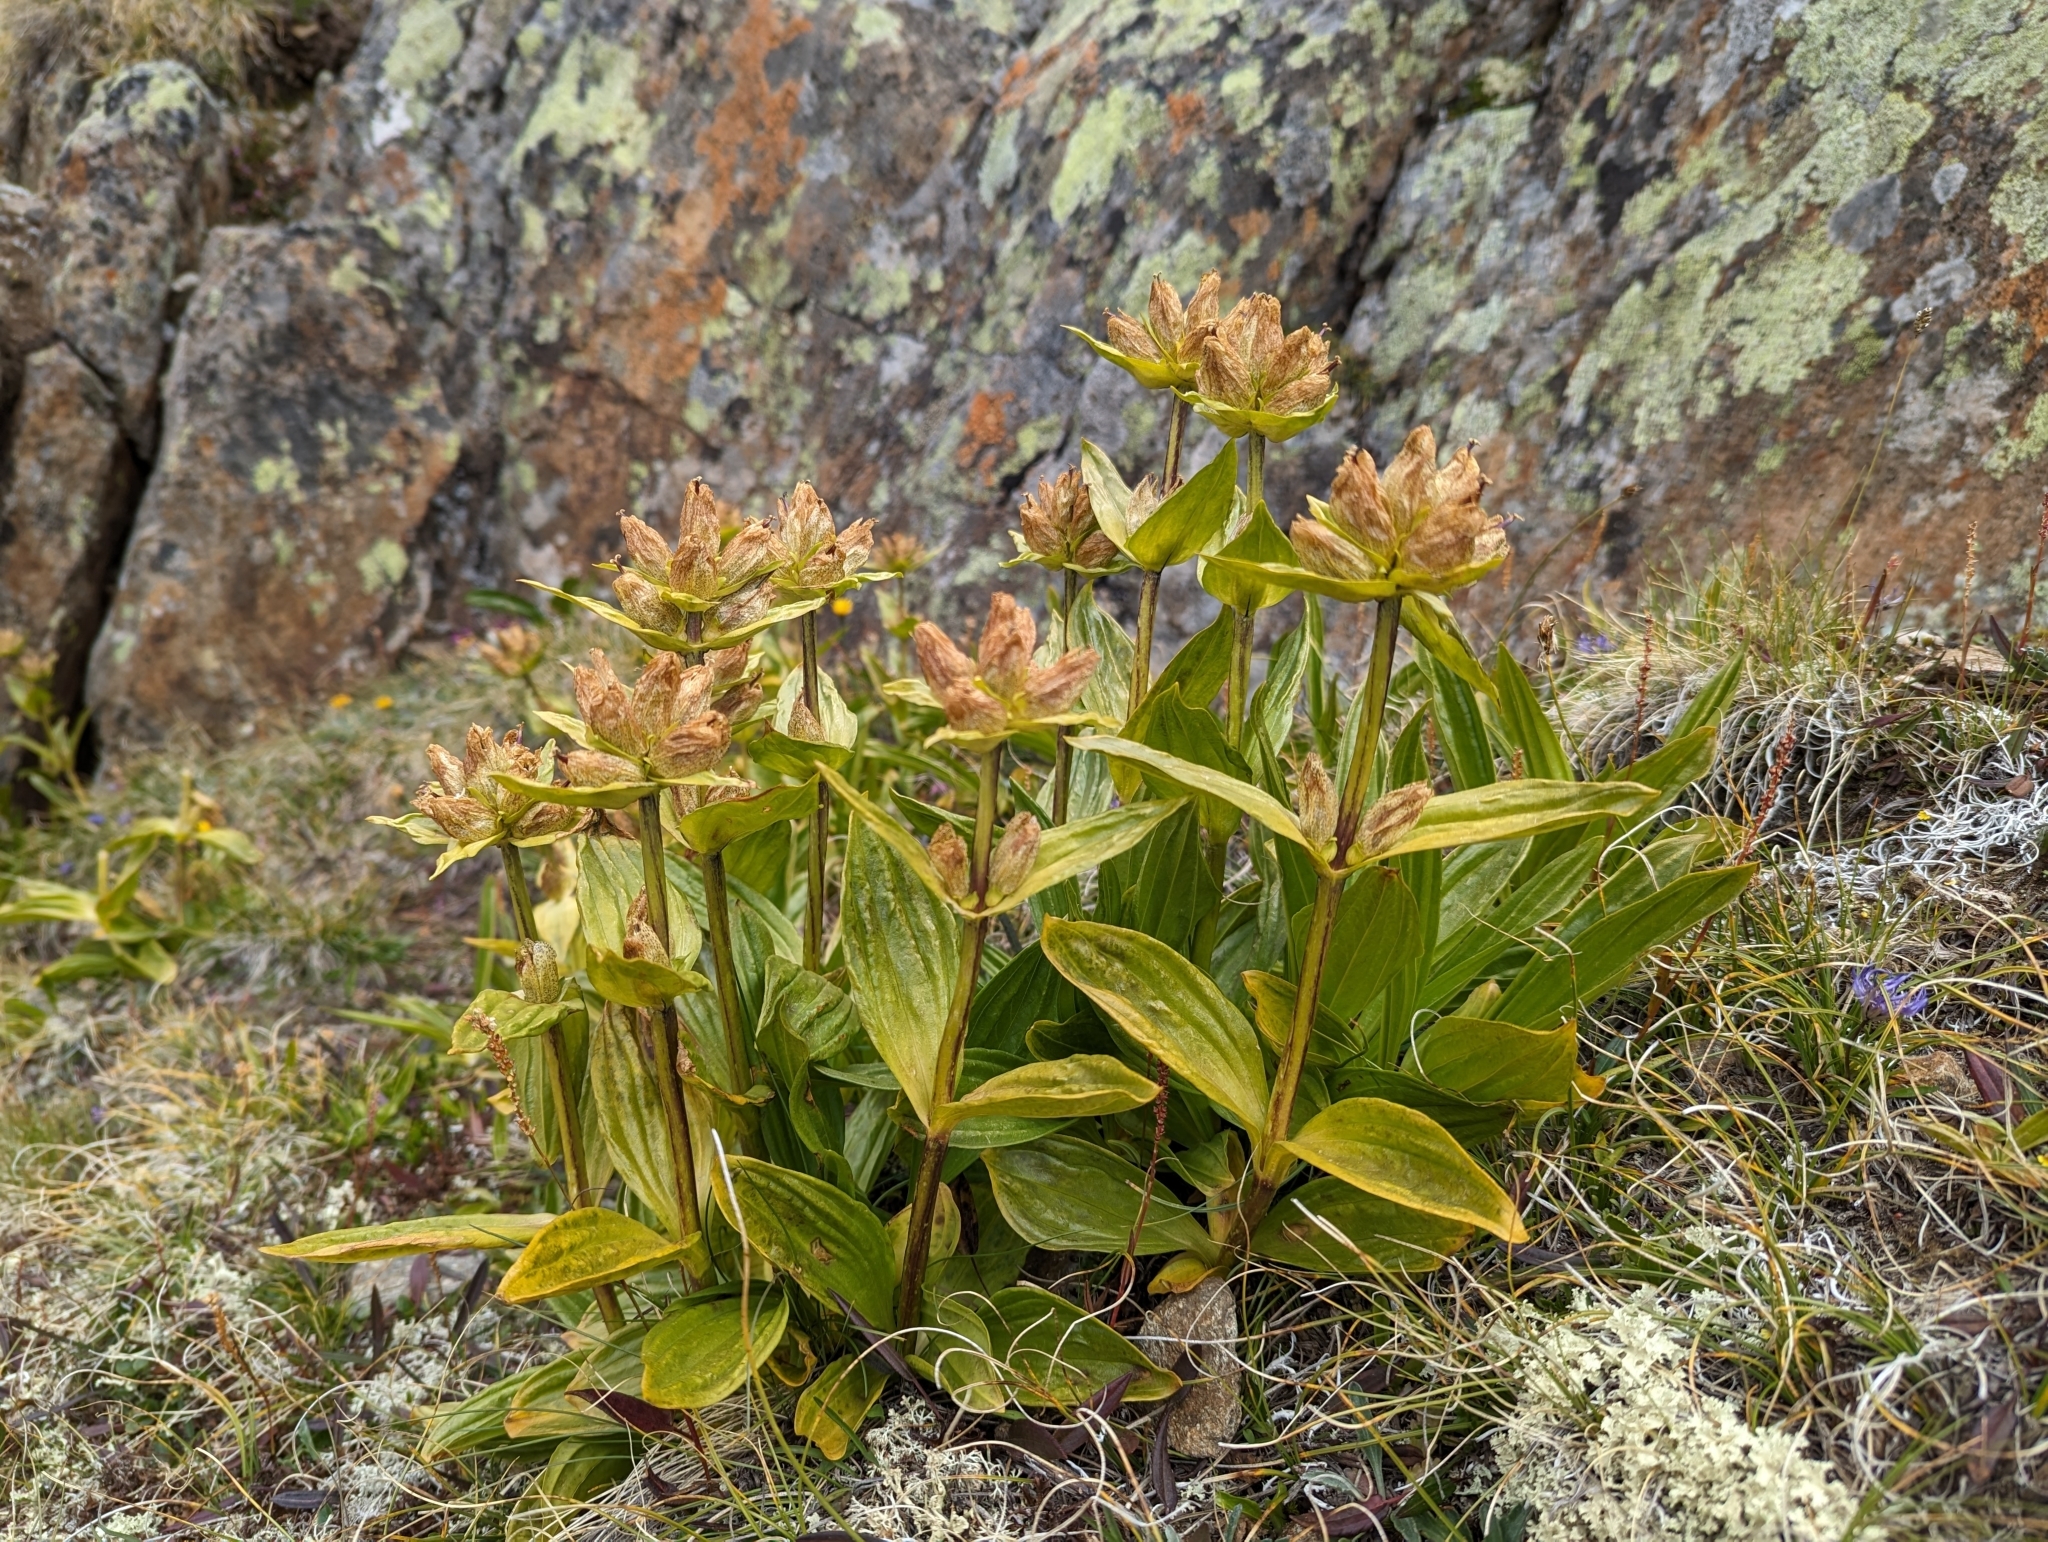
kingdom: Plantae
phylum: Tracheophyta
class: Magnoliopsida
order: Gentianales
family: Gentianaceae
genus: Gentiana
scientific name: Gentiana punctata
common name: Spotted gentian
